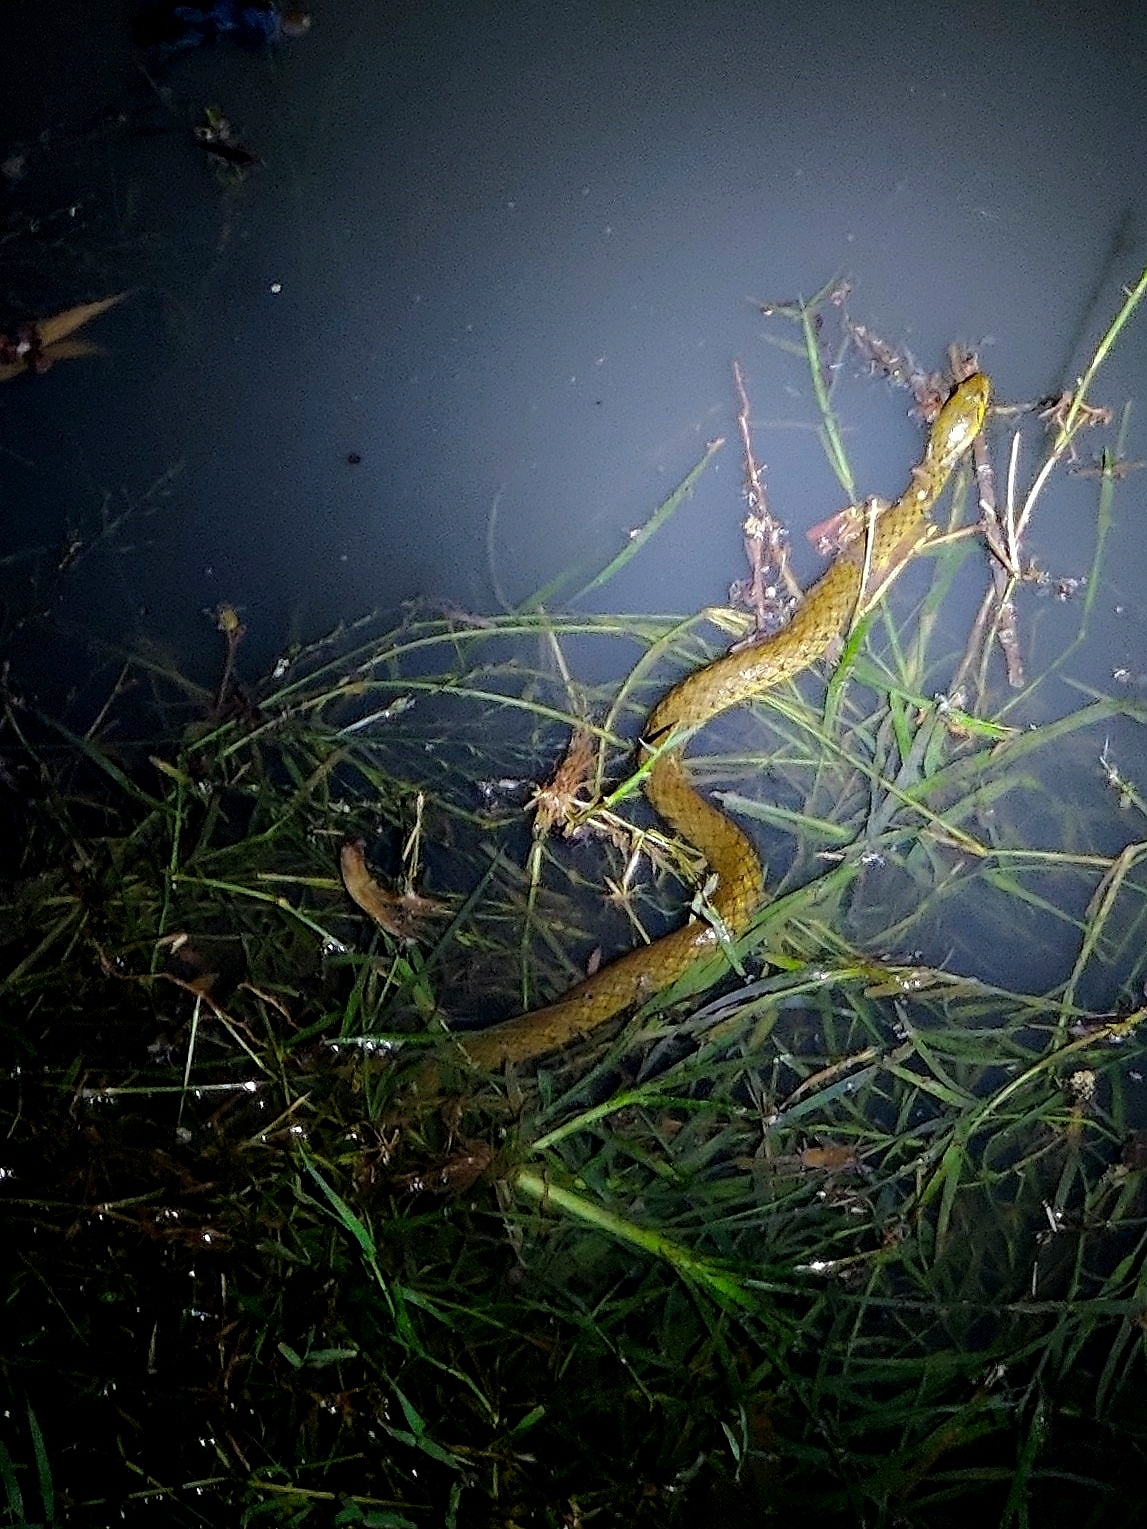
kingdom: Animalia
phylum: Chordata
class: Squamata
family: Colubridae
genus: Fowlea
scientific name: Fowlea piscator
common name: Asiatic water snake
